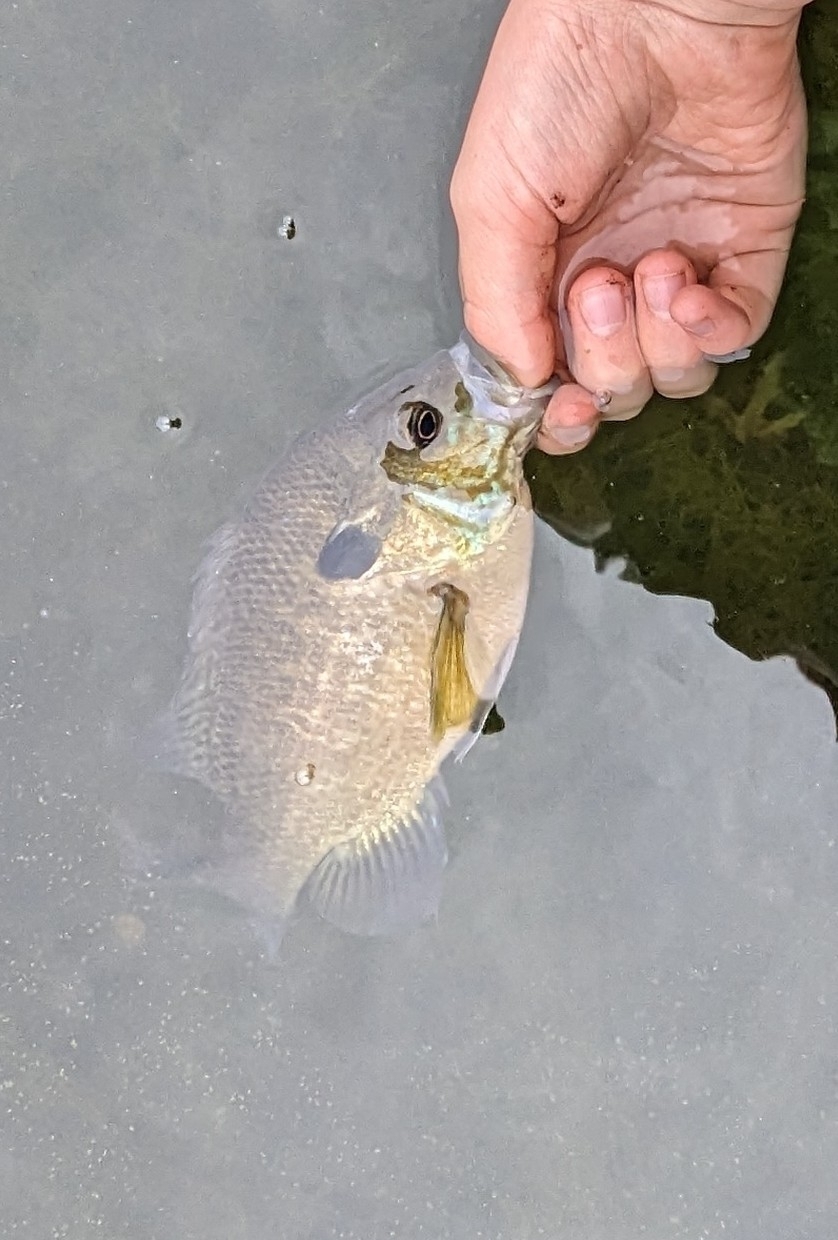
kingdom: Animalia
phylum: Chordata
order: Perciformes
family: Centrarchidae
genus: Lepomis
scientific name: Lepomis
